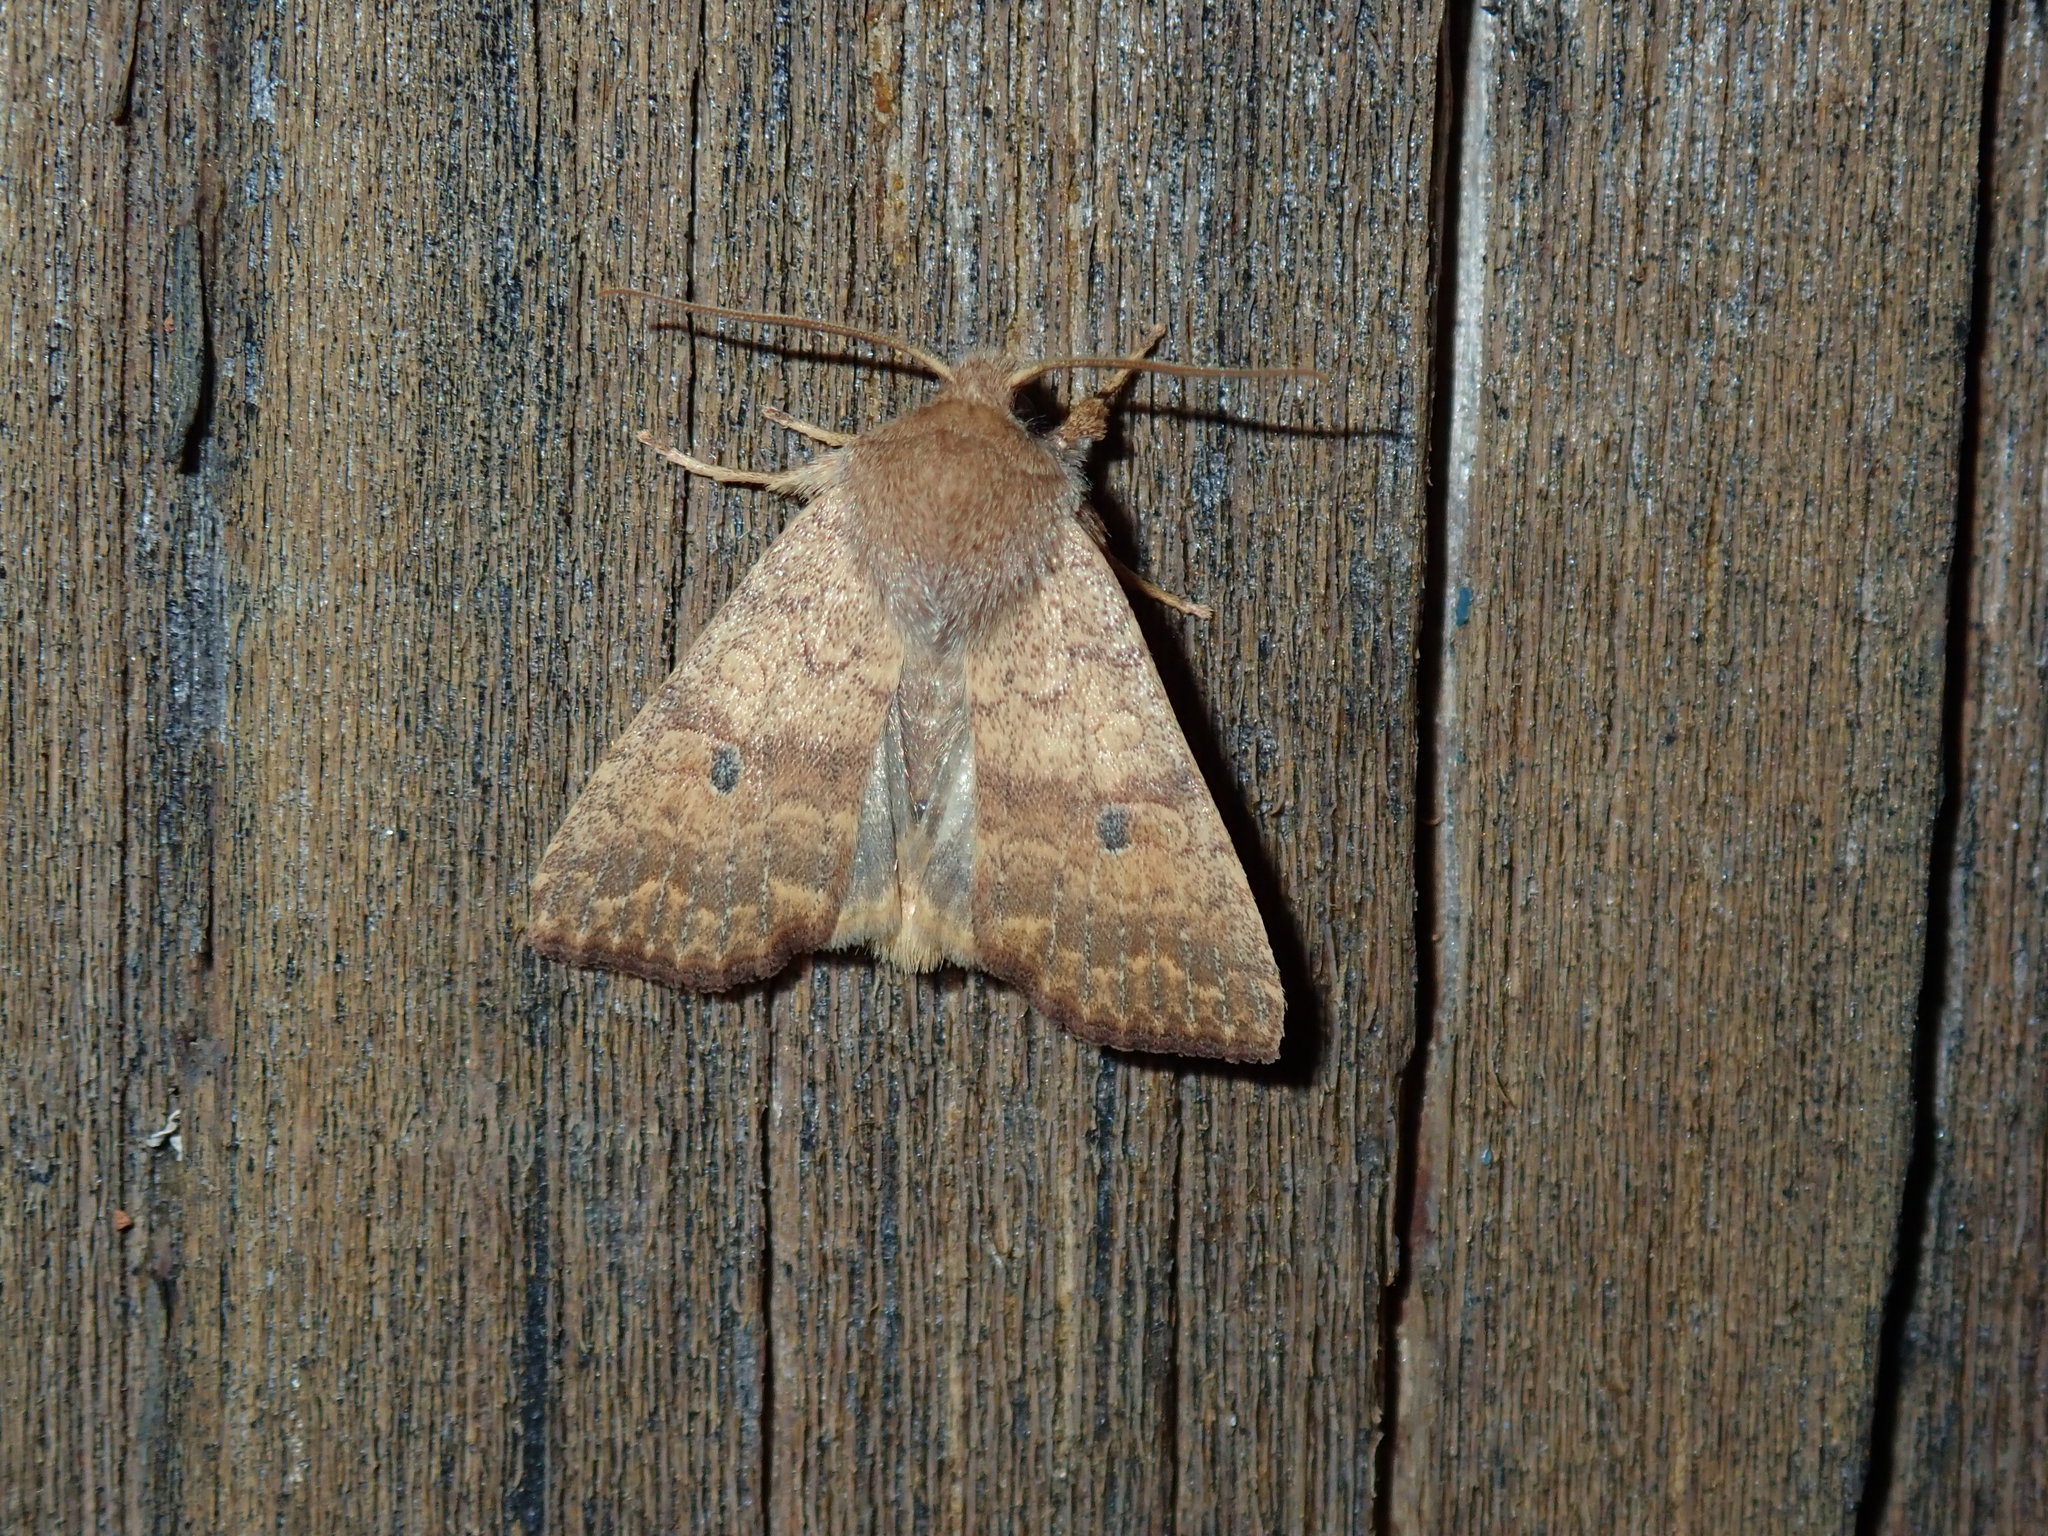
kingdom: Animalia
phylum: Arthropoda
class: Insecta
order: Lepidoptera
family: Noctuidae
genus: Agrochola
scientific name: Agrochola bicolorago
